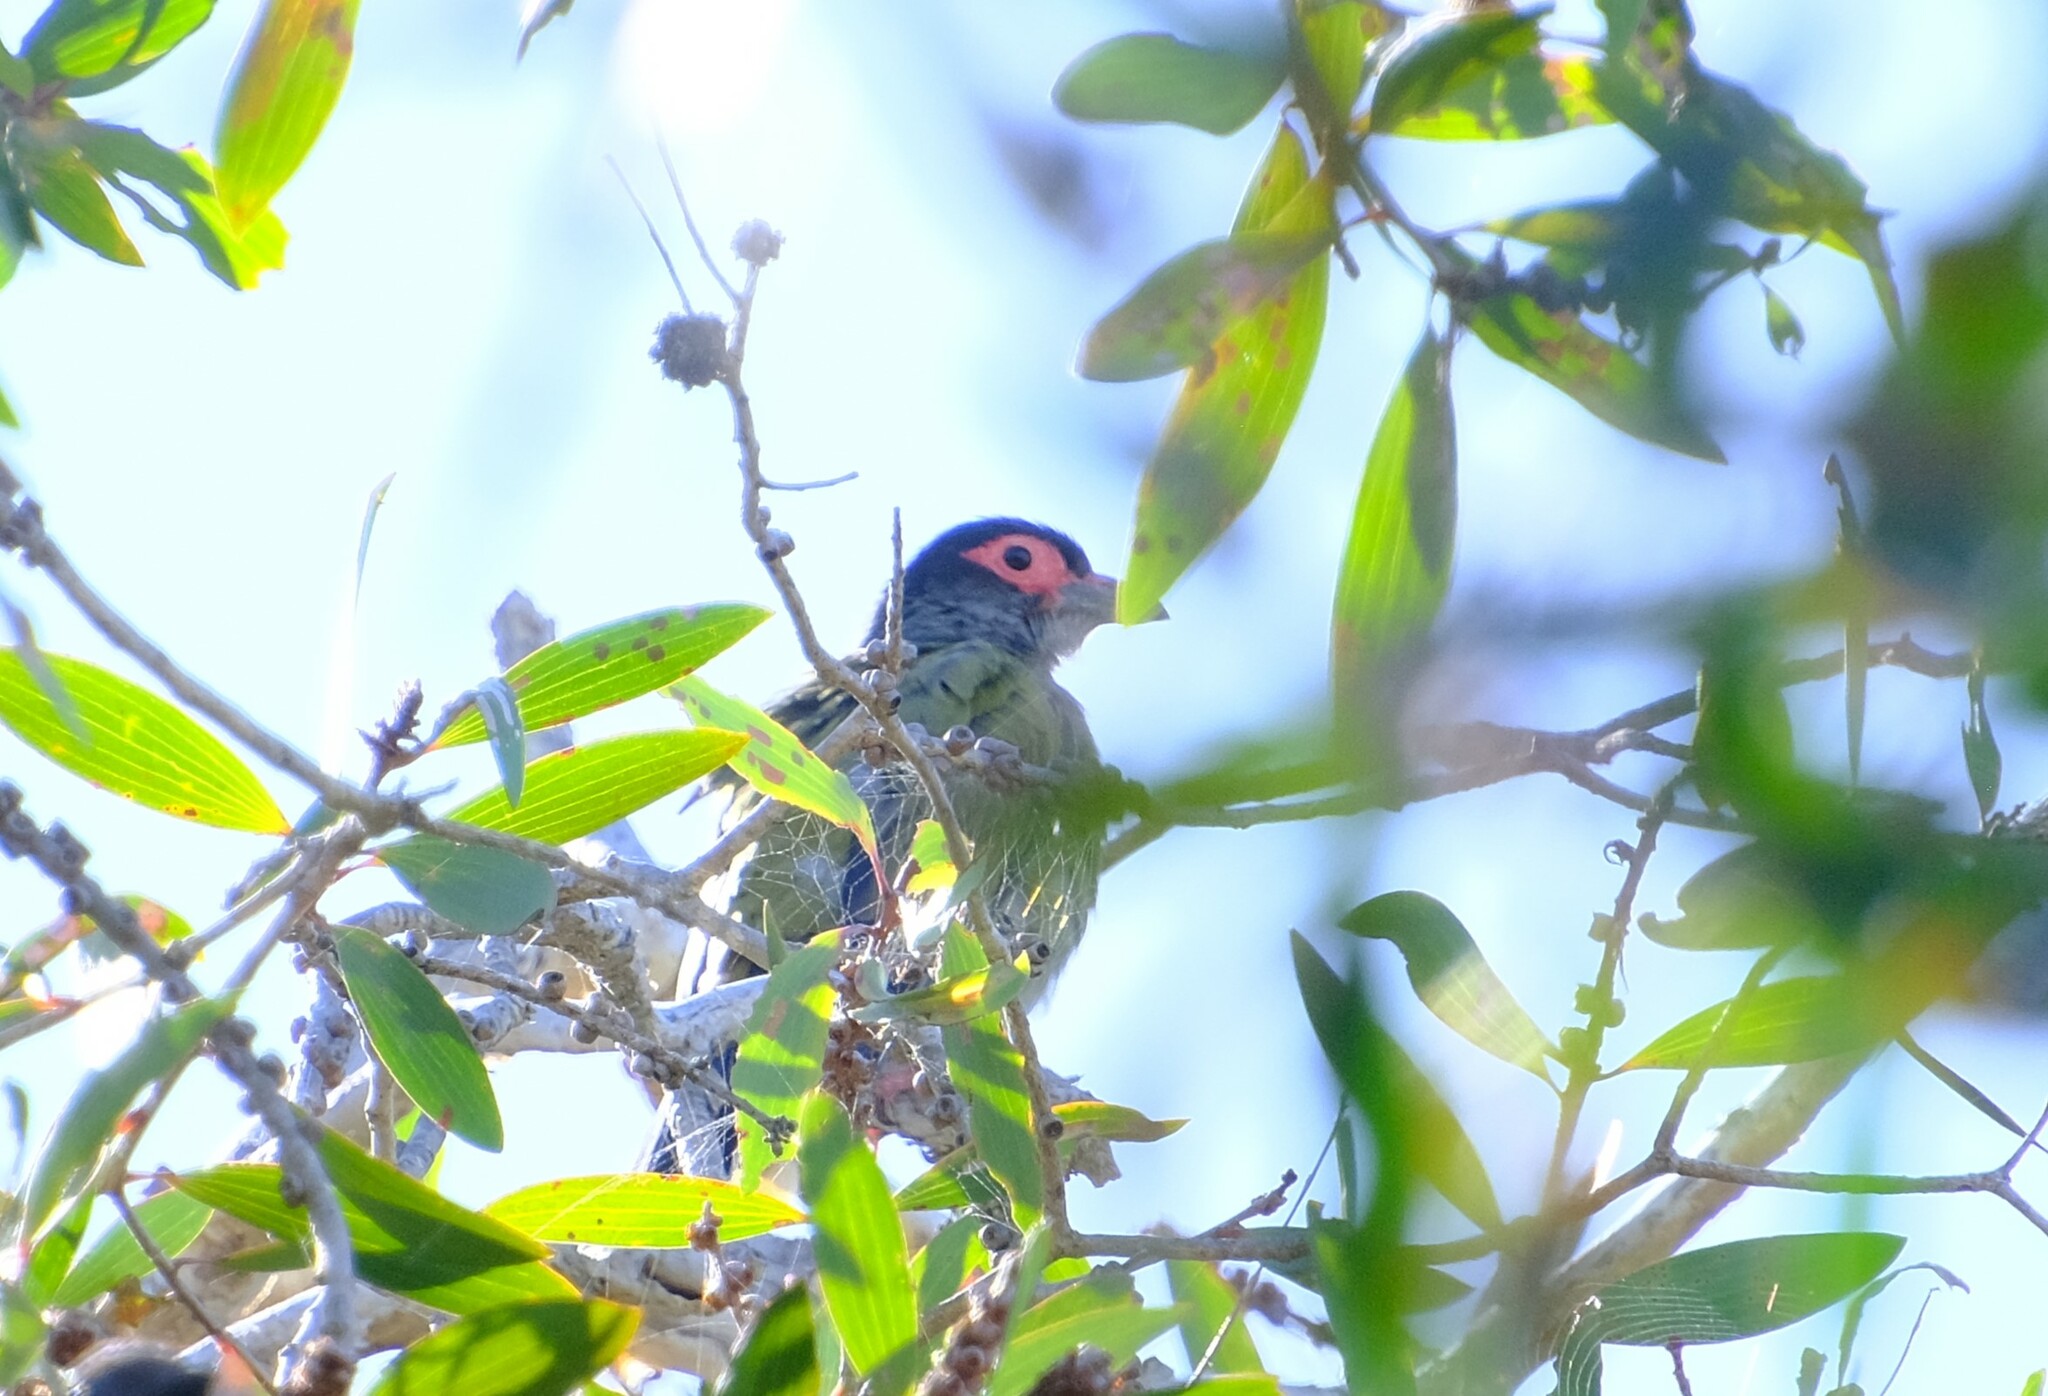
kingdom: Animalia
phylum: Chordata
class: Aves
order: Passeriformes
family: Oriolidae
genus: Sphecotheres
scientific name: Sphecotheres vieilloti
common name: Australasian figbird
